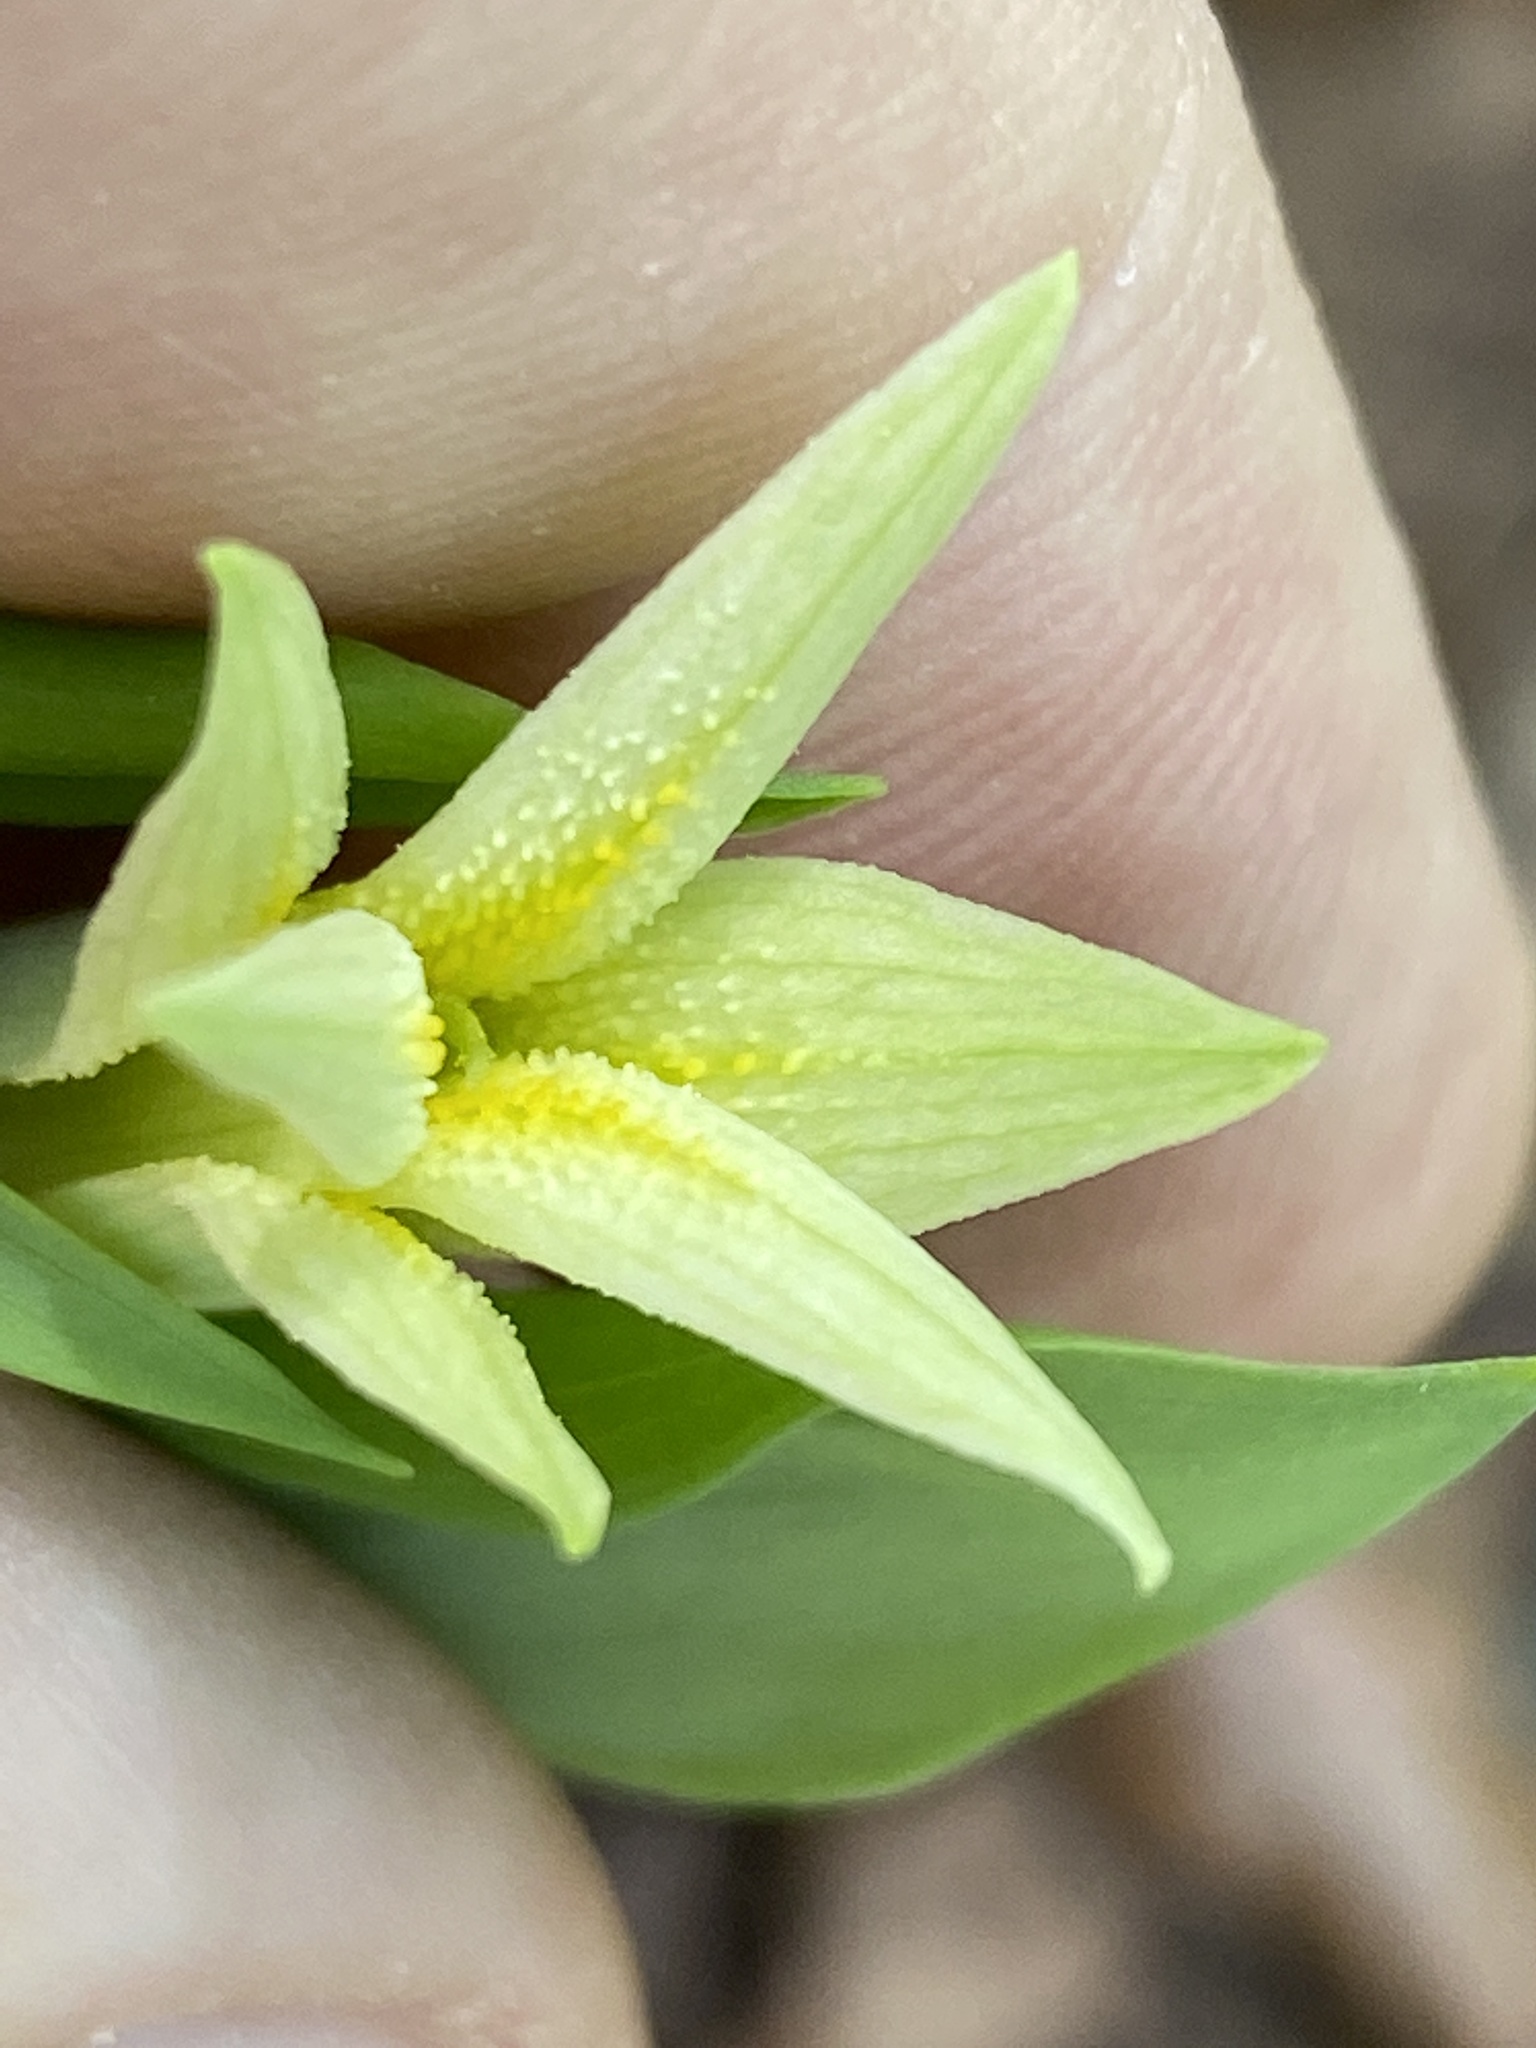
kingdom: Plantae
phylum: Tracheophyta
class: Liliopsida
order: Liliales
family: Colchicaceae
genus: Uvularia
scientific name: Uvularia perfoliata
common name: Perfoliate bellwort
